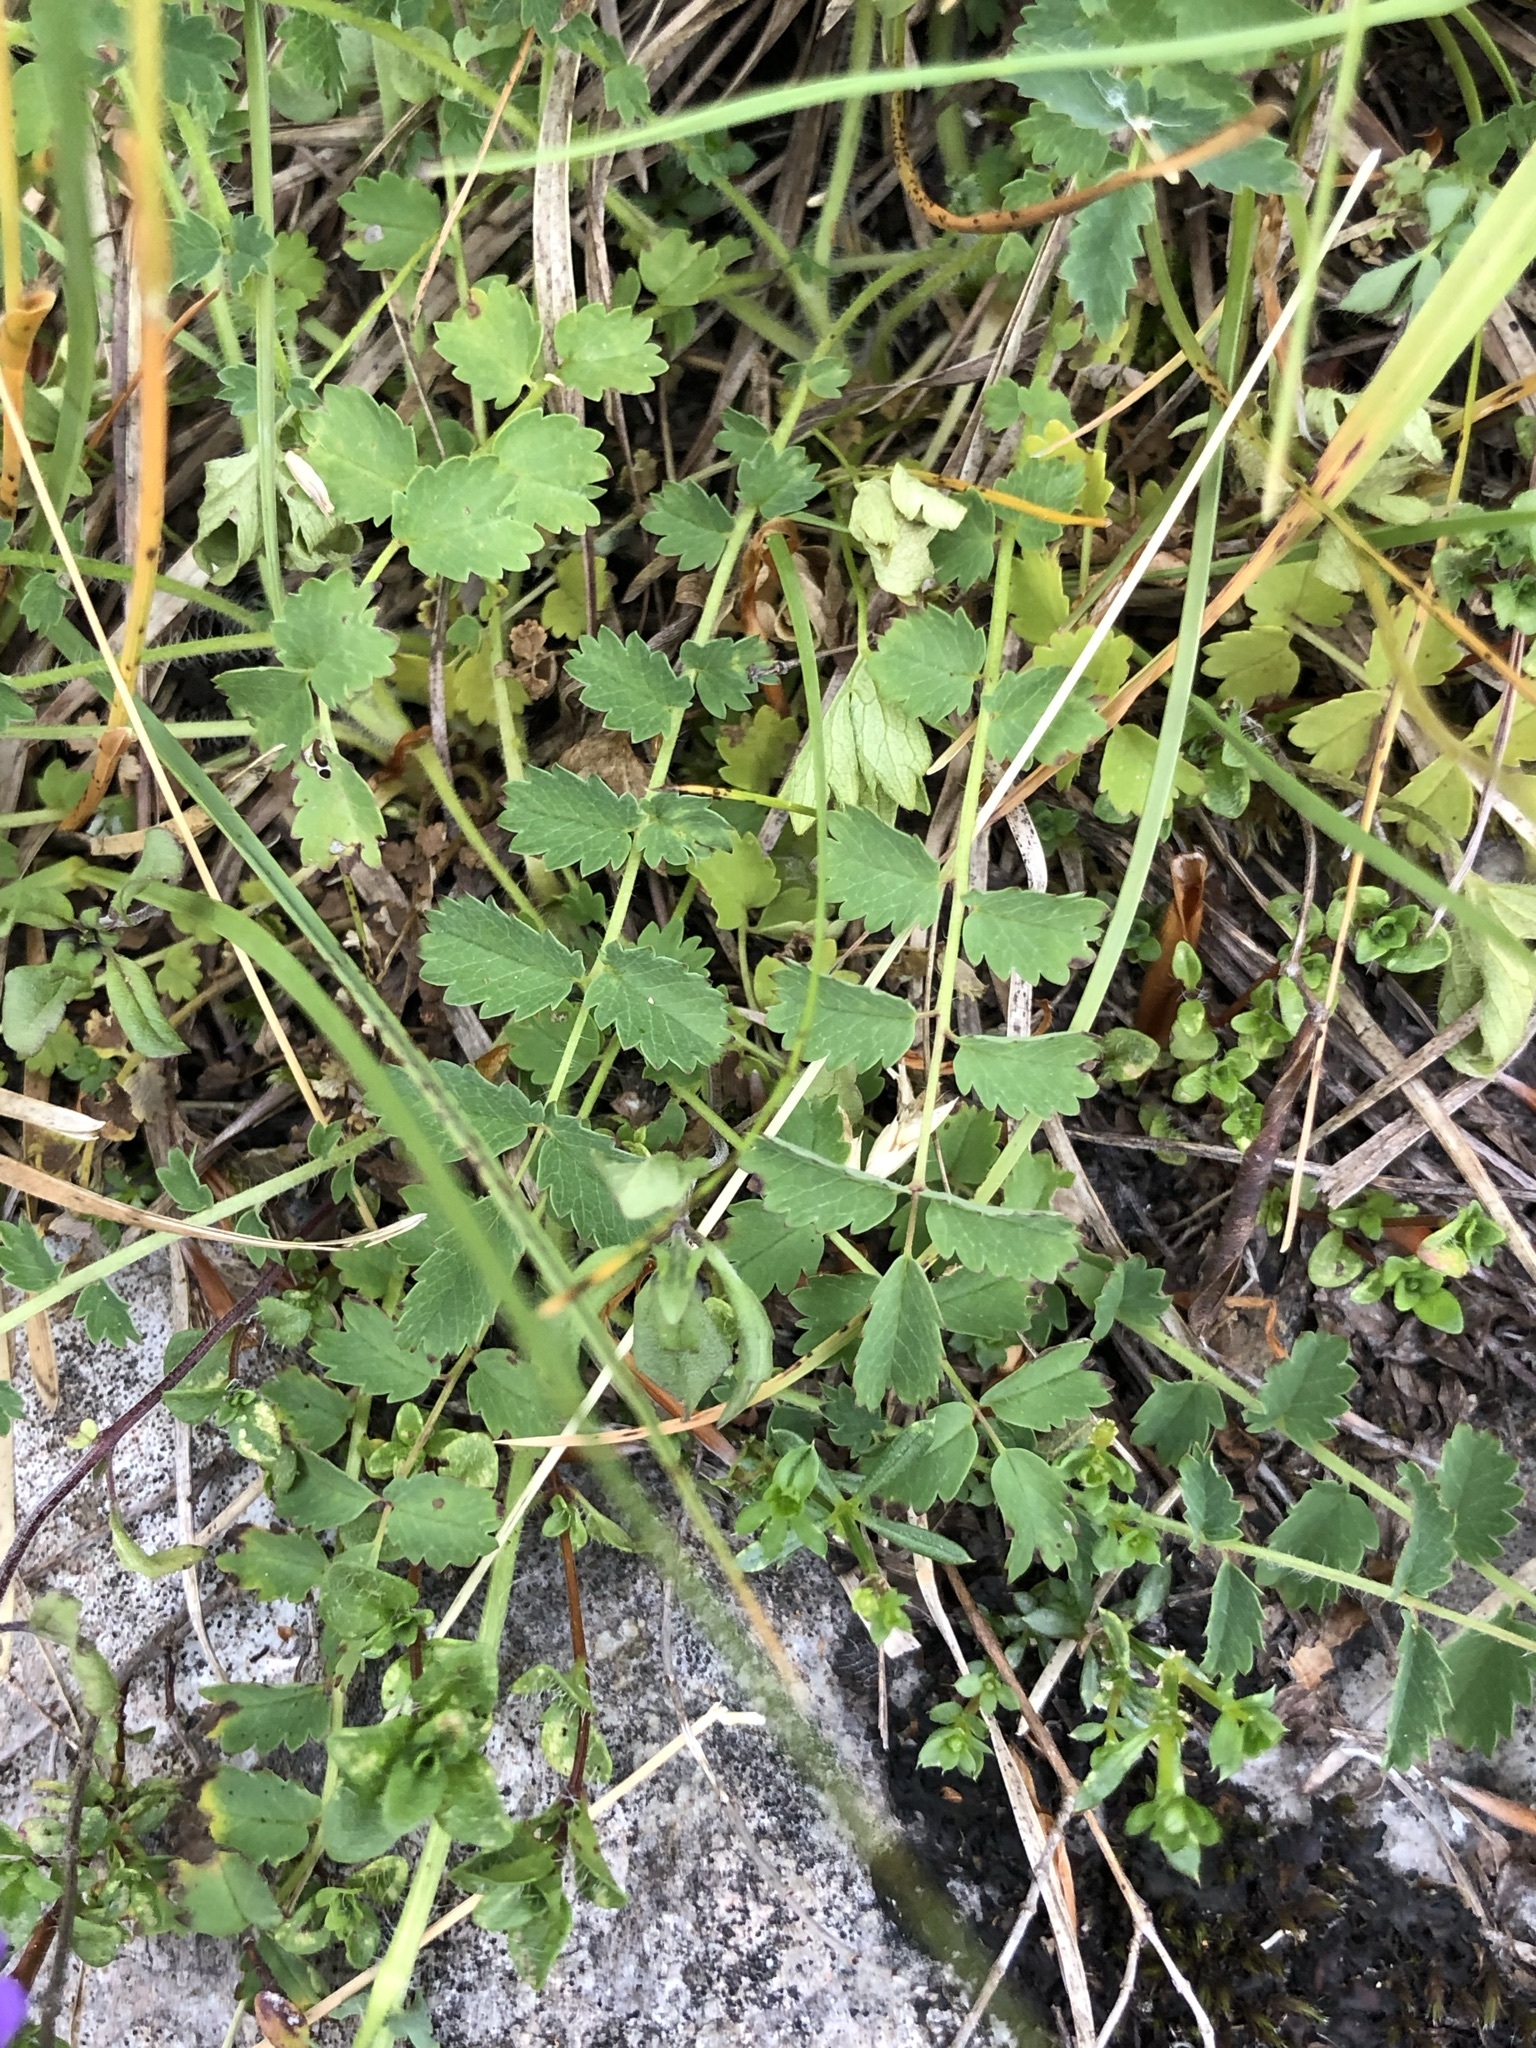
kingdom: Plantae
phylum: Tracheophyta
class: Magnoliopsida
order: Rosales
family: Rosaceae
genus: Poterium
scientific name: Poterium sanguisorba
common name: Salad burnet
